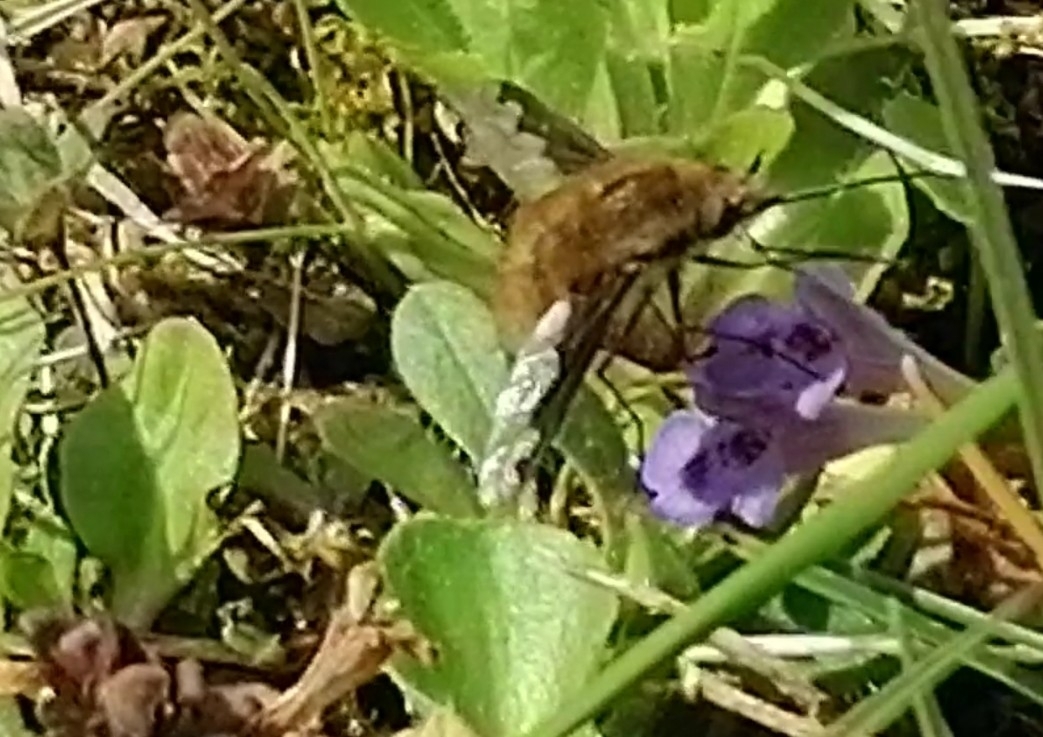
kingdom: Animalia
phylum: Arthropoda
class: Insecta
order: Diptera
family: Bombyliidae
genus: Bombylius
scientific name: Bombylius major
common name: Bee fly
